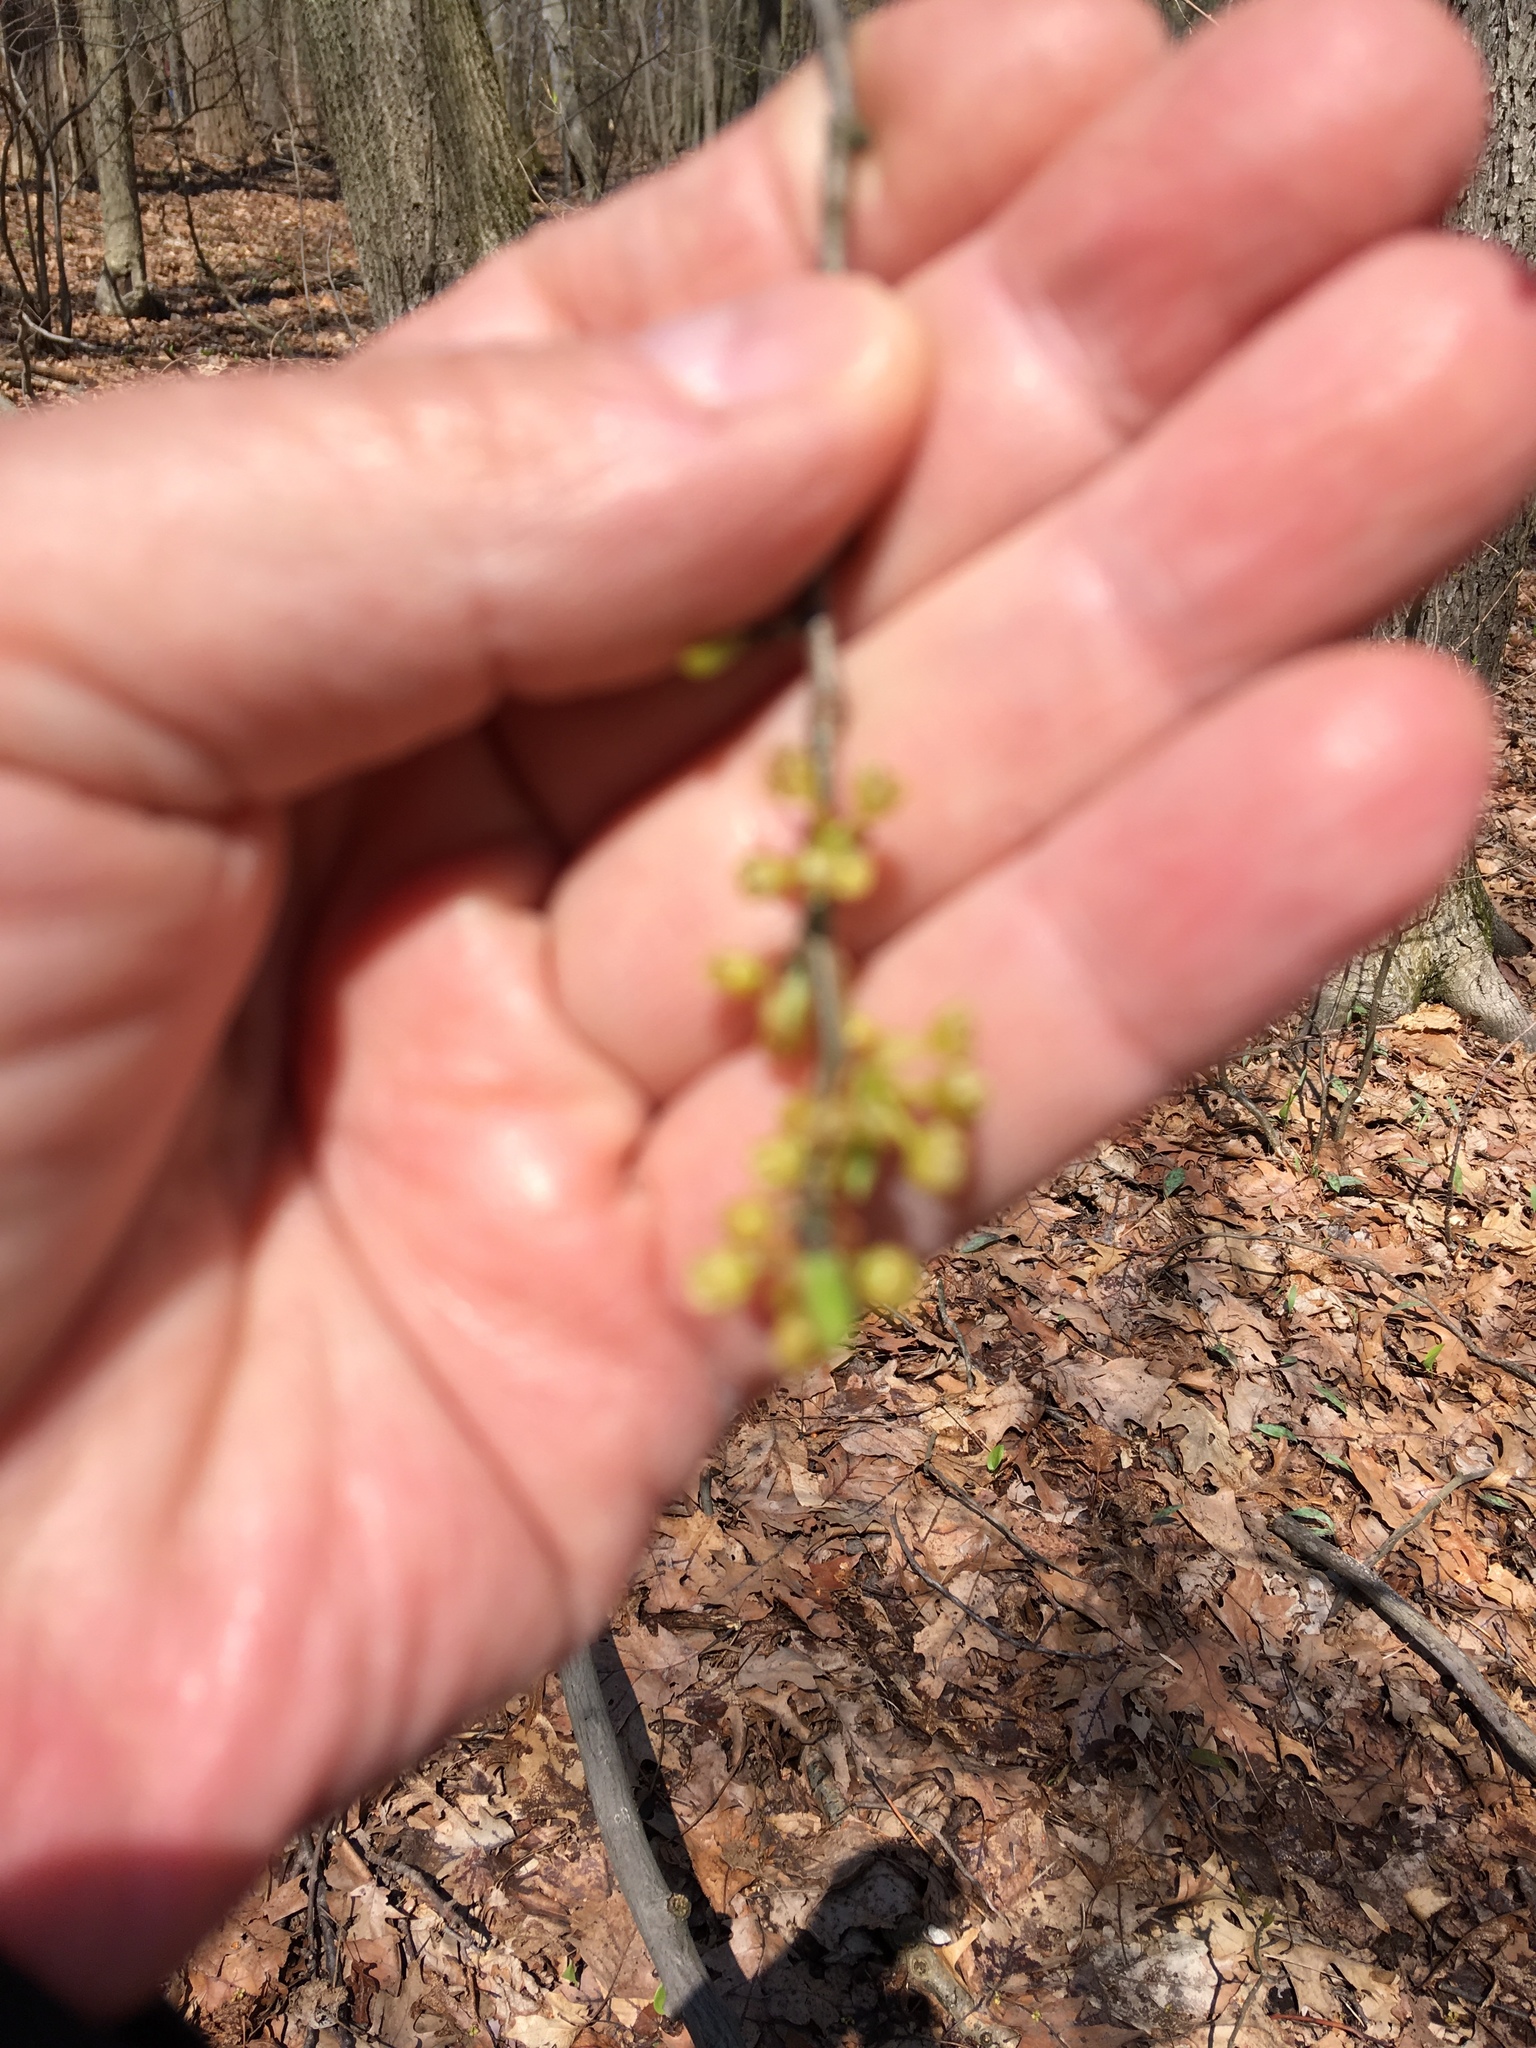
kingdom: Plantae
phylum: Tracheophyta
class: Magnoliopsida
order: Laurales
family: Lauraceae
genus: Lindera
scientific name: Lindera benzoin
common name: Spicebush
